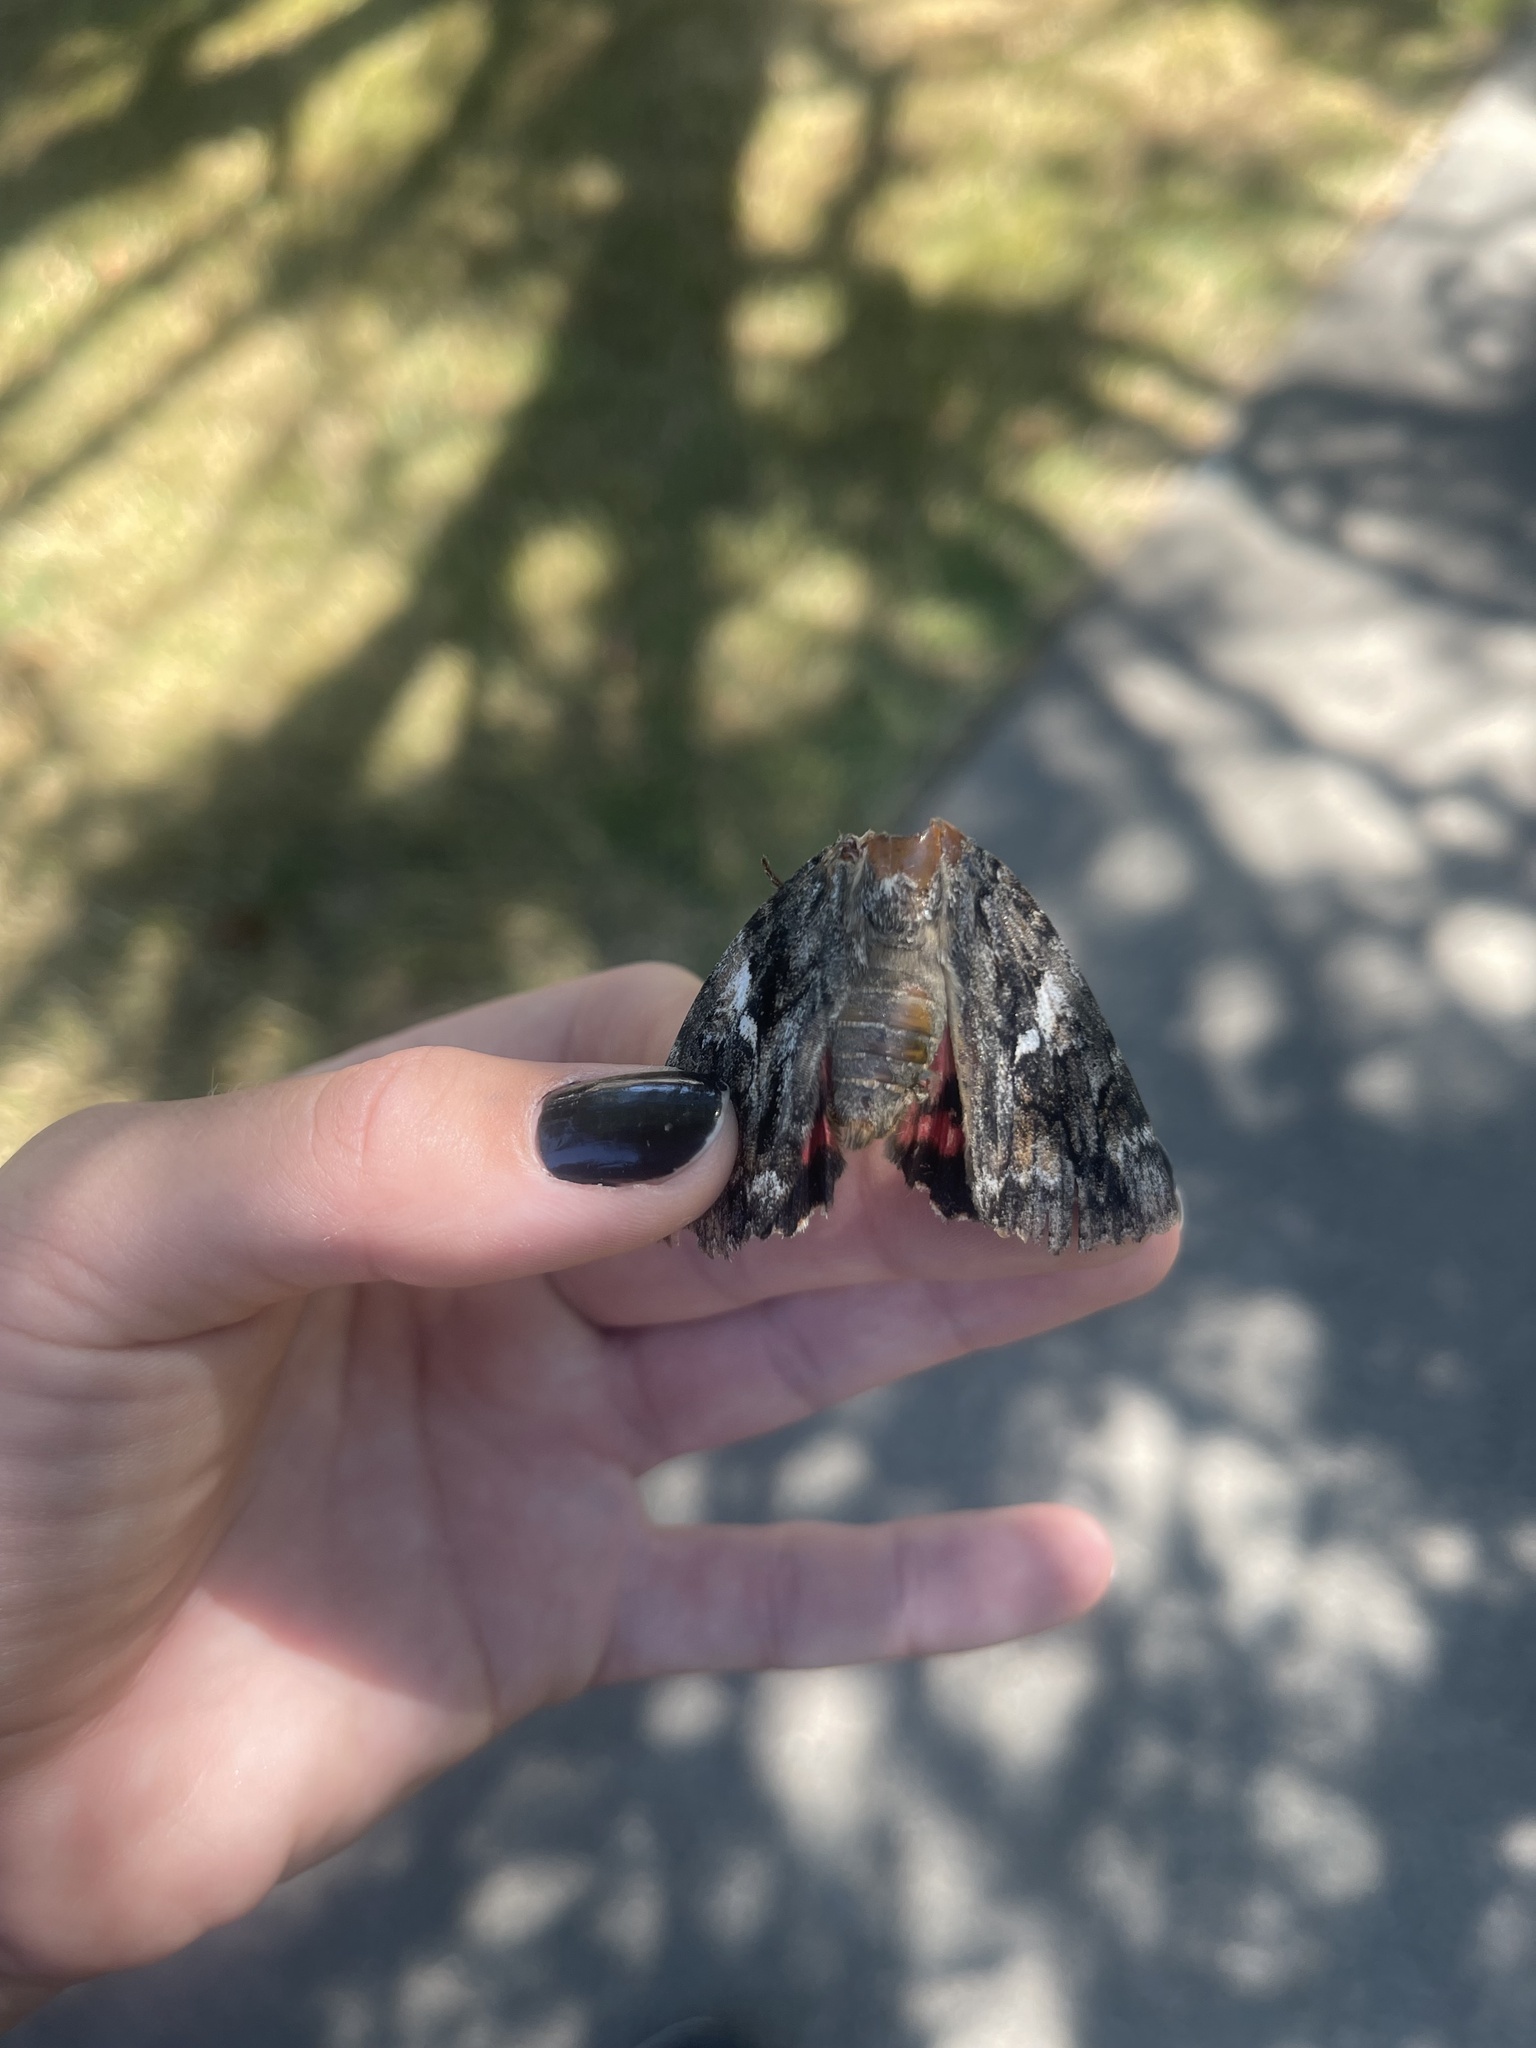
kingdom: Animalia
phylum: Arthropoda
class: Insecta
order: Lepidoptera
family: Erebidae
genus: Catocala
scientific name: Catocala aholibah
